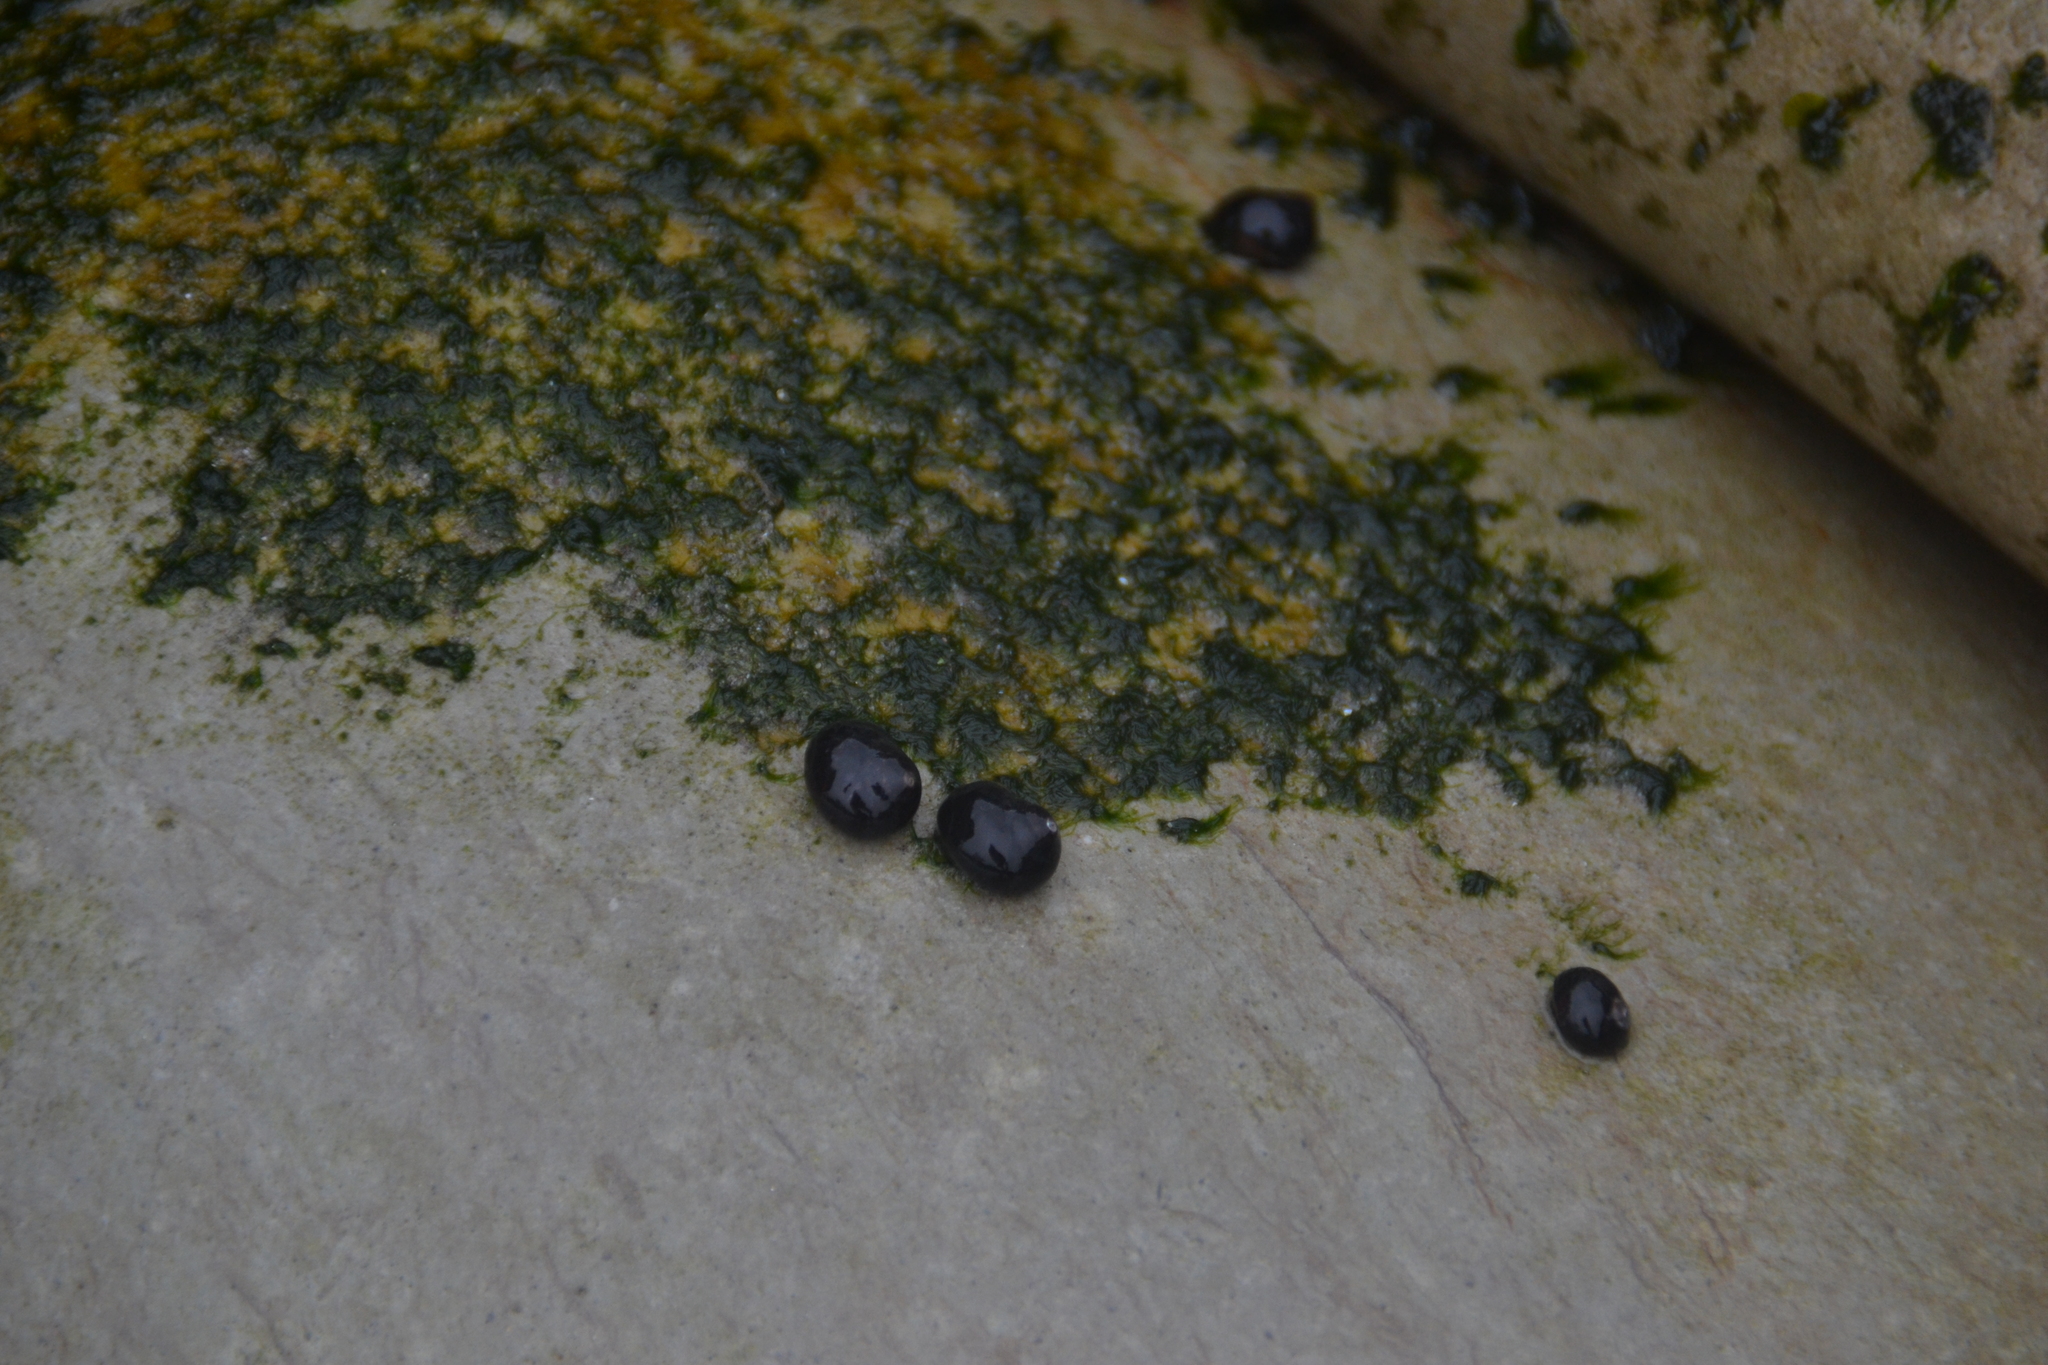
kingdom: Animalia
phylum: Mollusca
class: Gastropoda
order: Trochida
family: Turbinidae
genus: Prisogaster
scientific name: Prisogaster niger
